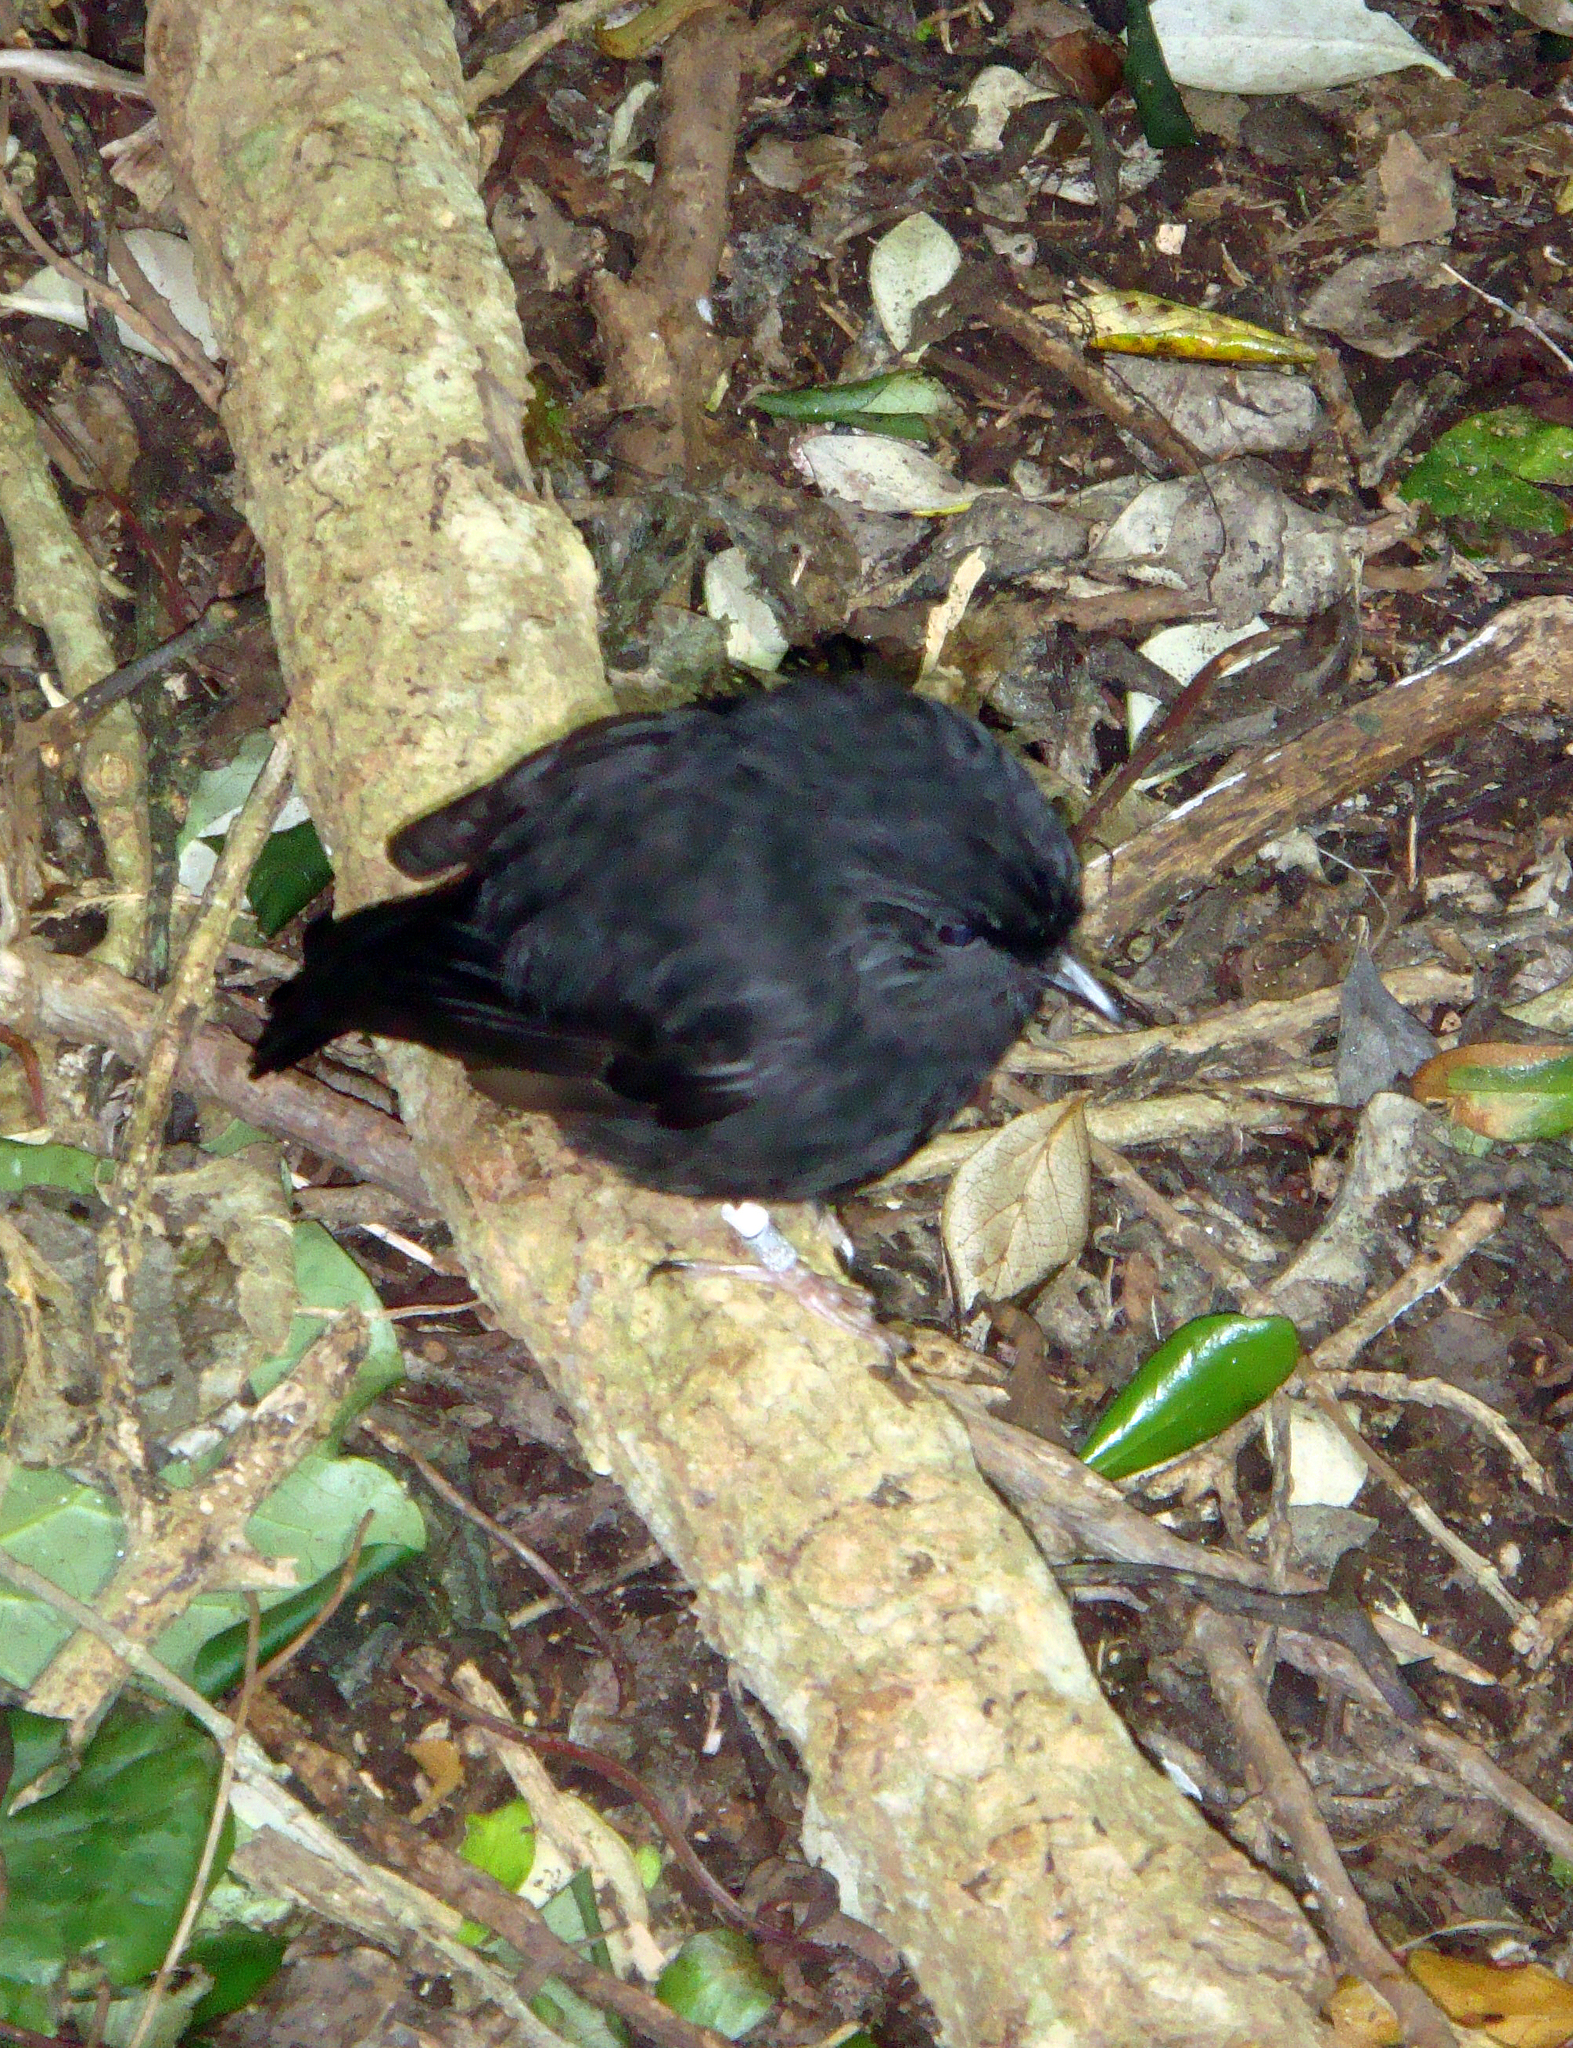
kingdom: Animalia
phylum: Chordata
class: Aves
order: Passeriformes
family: Petroicidae
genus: Petroica
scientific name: Petroica traversi
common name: Black robin
